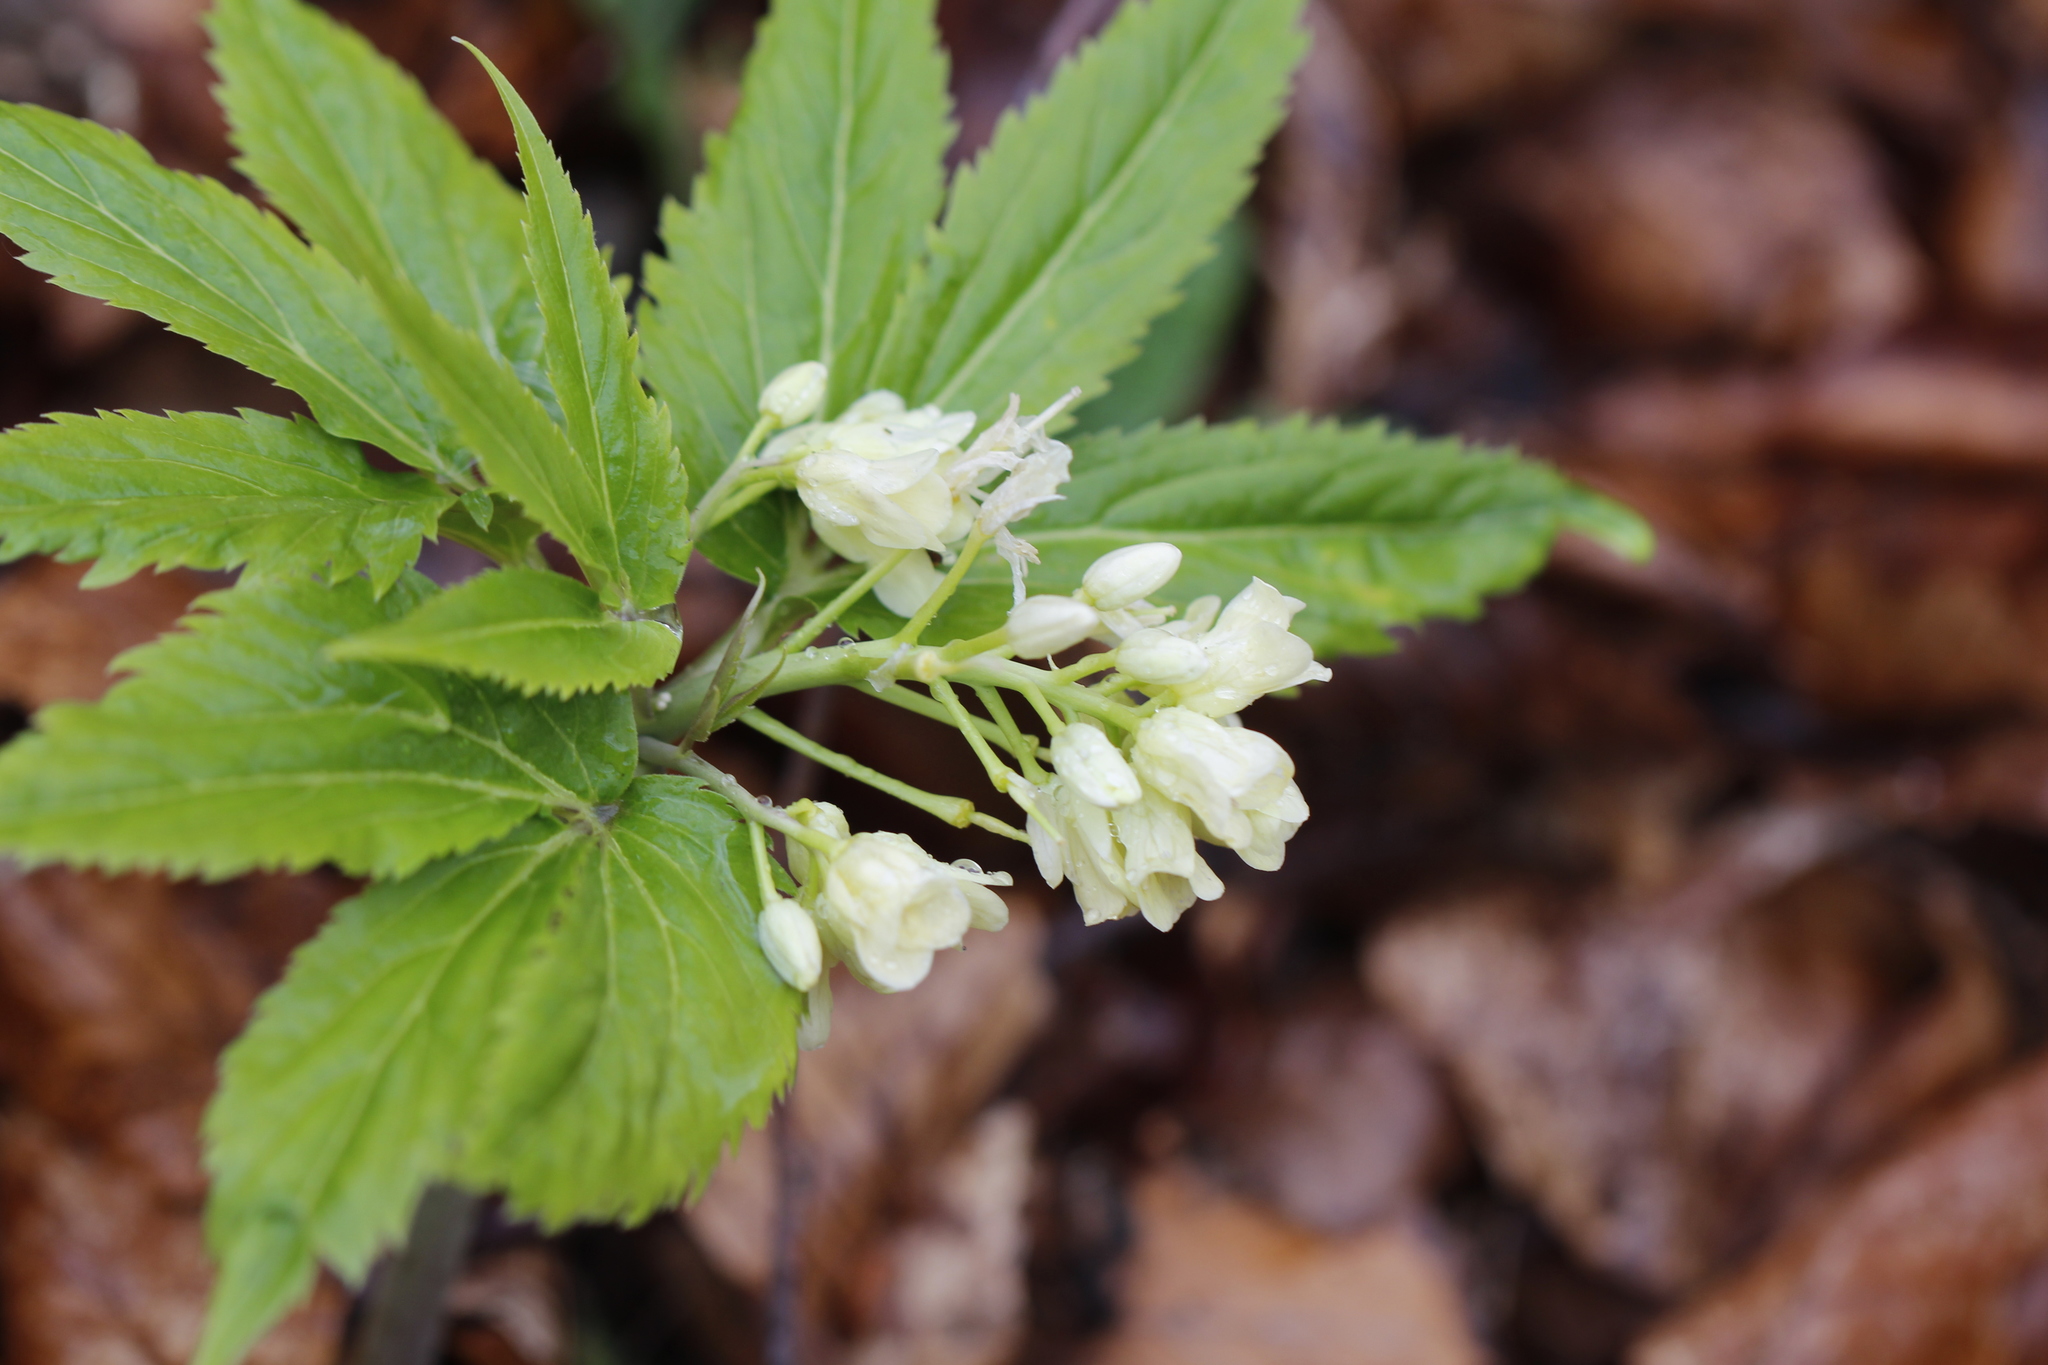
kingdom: Plantae
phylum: Tracheophyta
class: Magnoliopsida
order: Brassicales
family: Brassicaceae
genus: Cardamine
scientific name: Cardamine enneaphyllos
